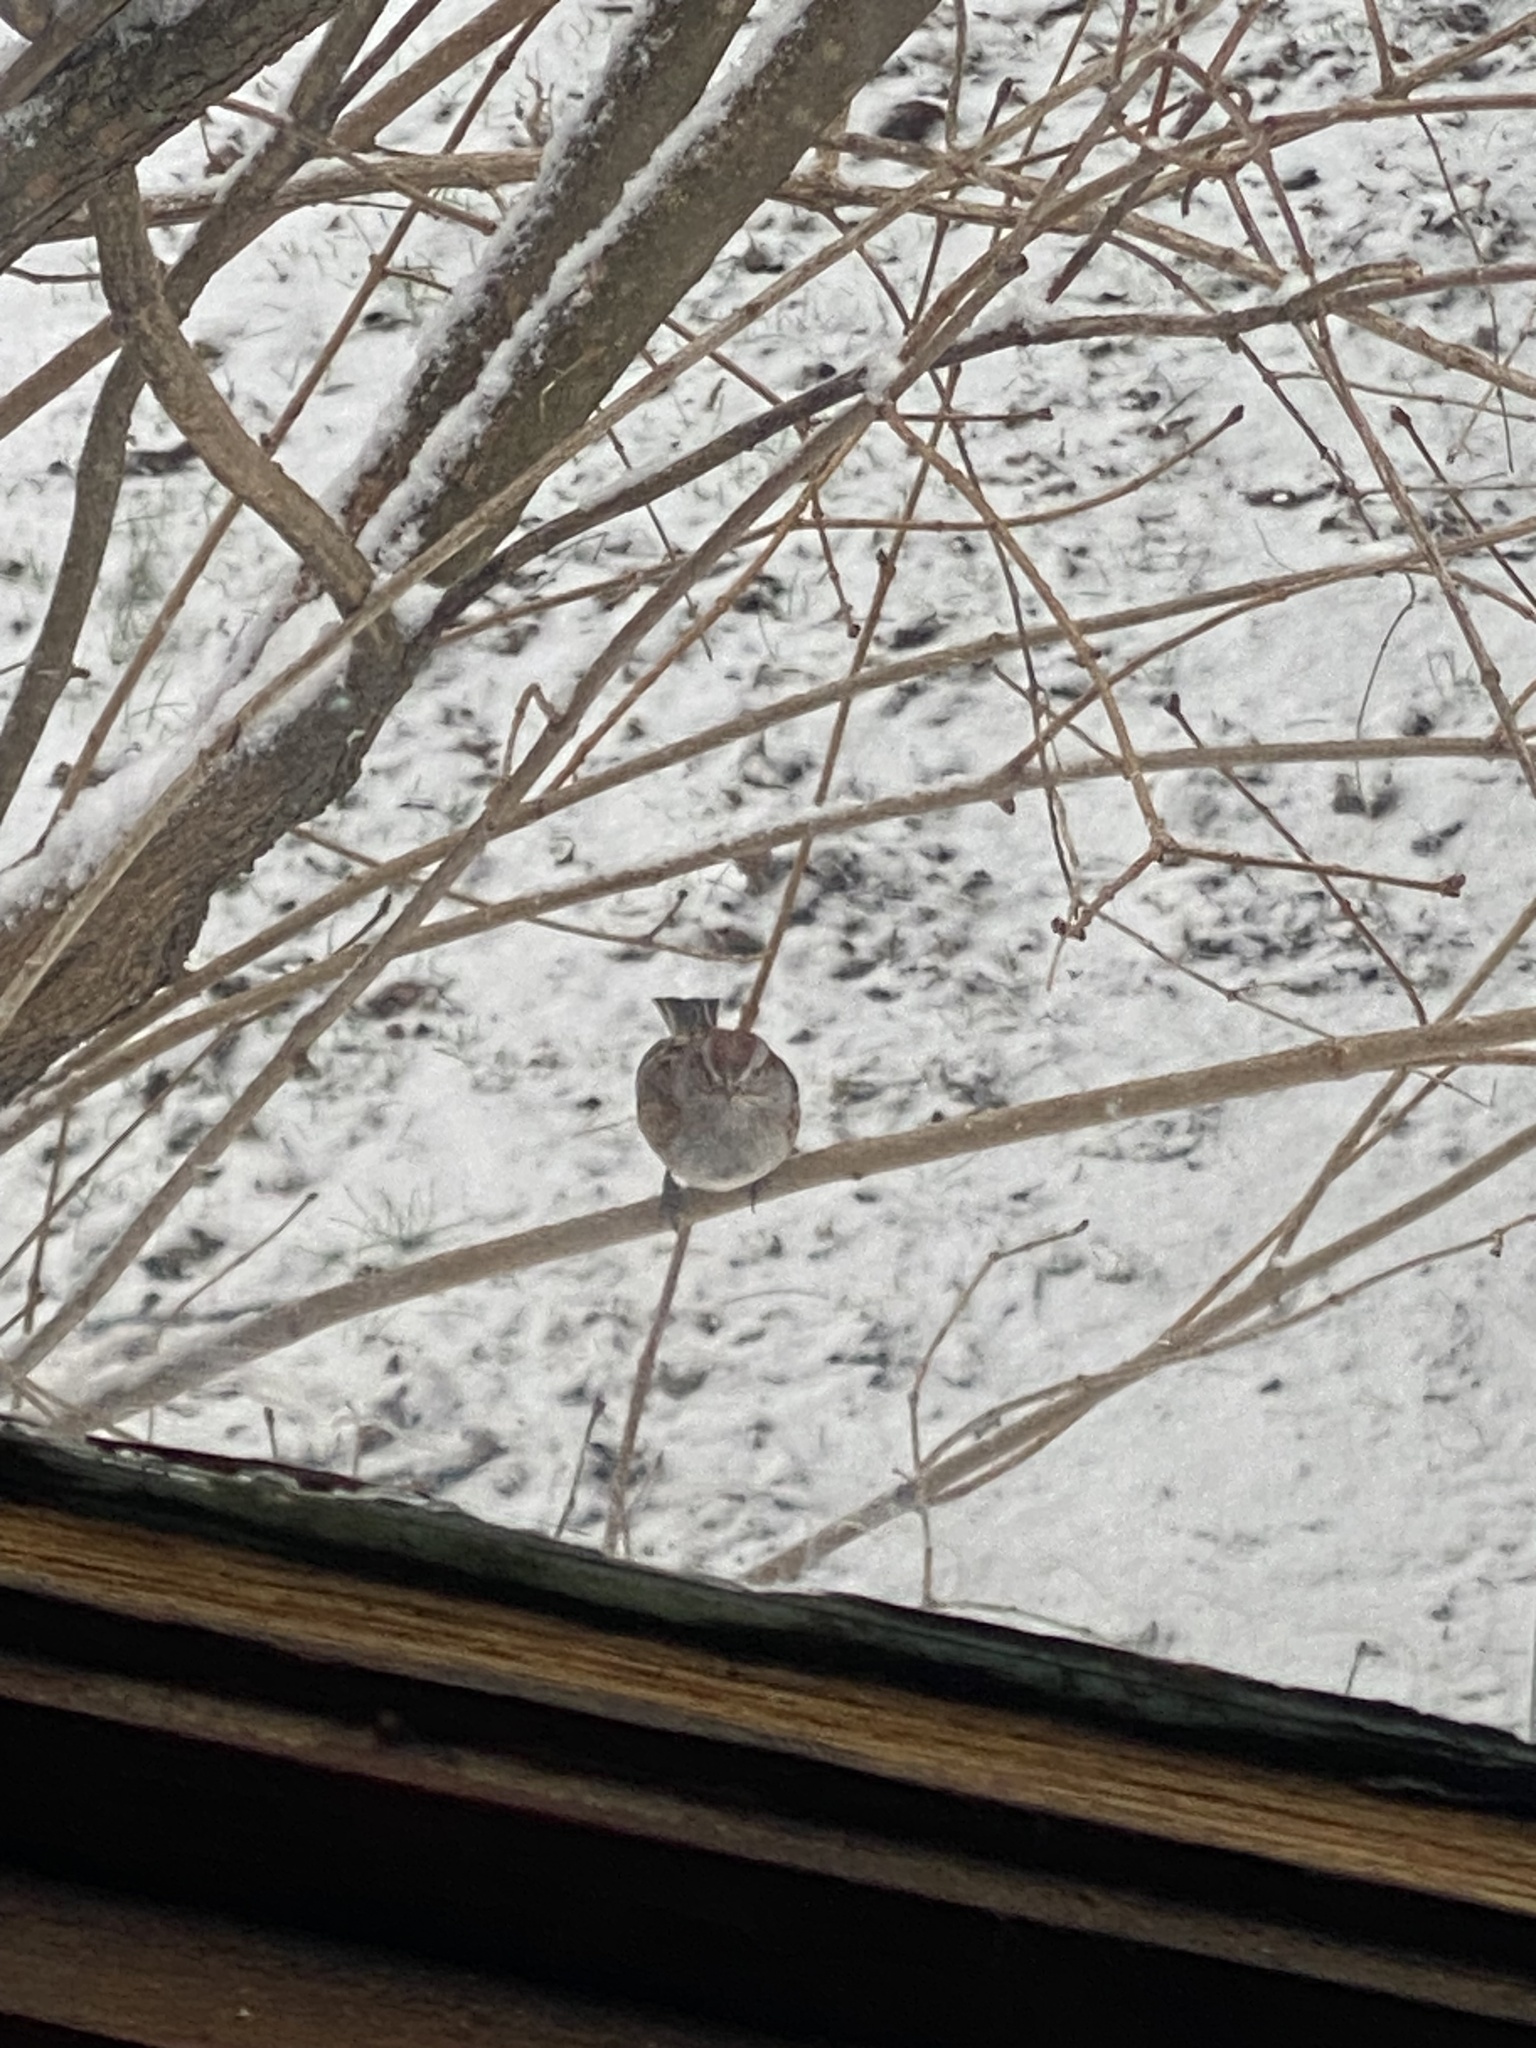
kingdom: Animalia
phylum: Chordata
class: Aves
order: Passeriformes
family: Passerellidae
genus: Spizelloides
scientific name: Spizelloides arborea
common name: American tree sparrow
